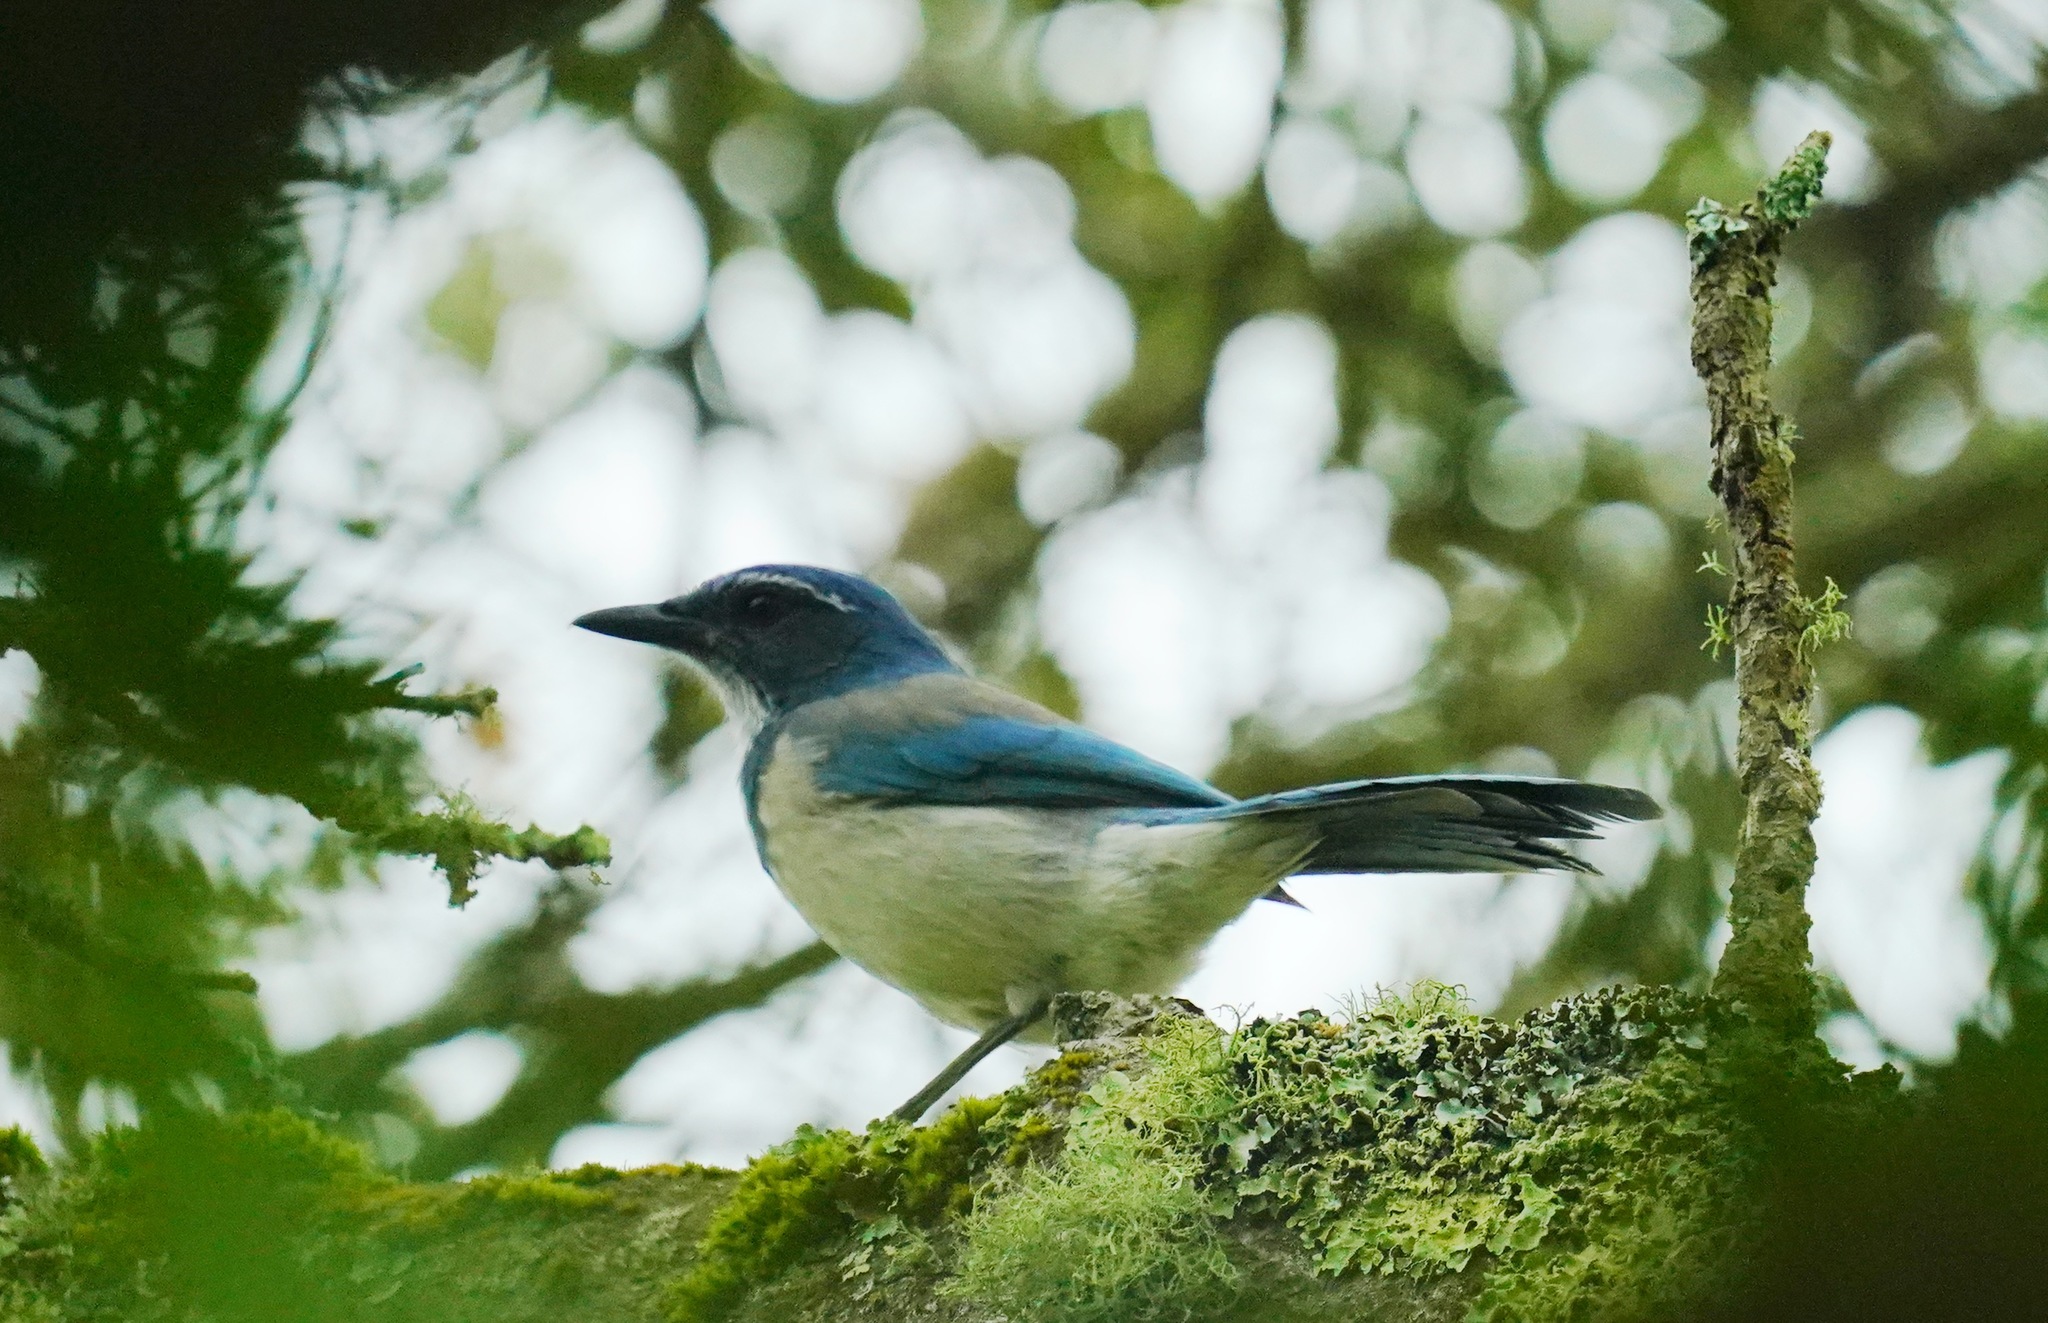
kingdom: Animalia
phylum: Chordata
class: Aves
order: Passeriformes
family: Corvidae
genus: Aphelocoma
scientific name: Aphelocoma californica
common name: California scrub-jay
